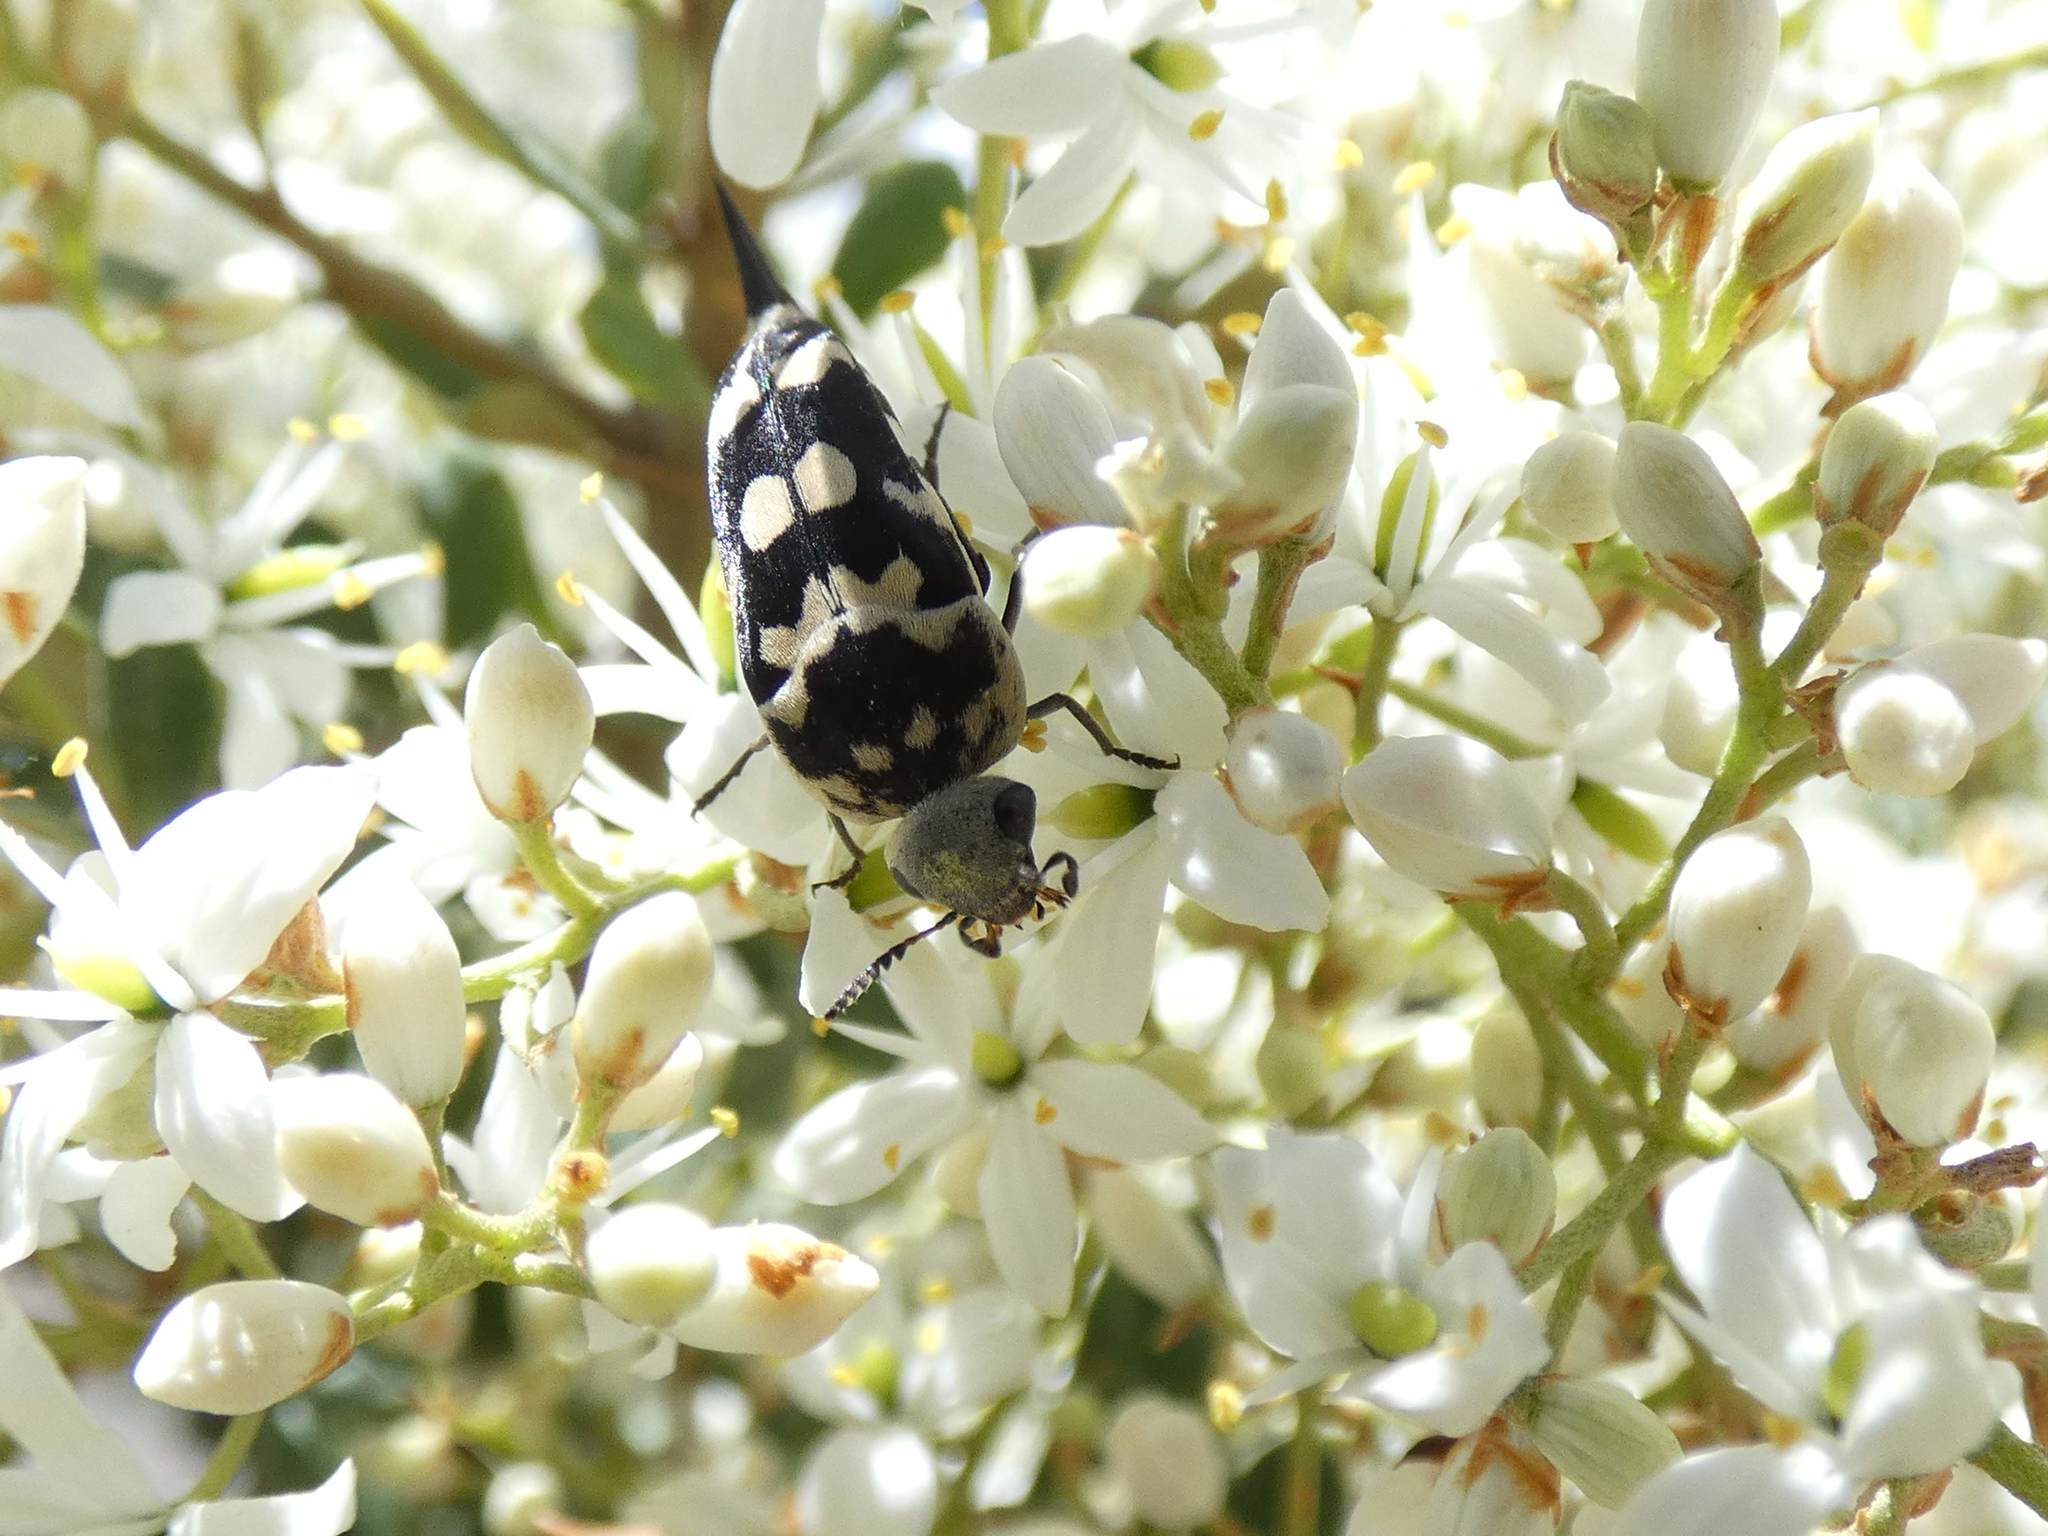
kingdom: Animalia
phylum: Arthropoda
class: Insecta
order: Coleoptera
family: Mordellidae
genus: Hoshihananomia
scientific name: Hoshihananomia
